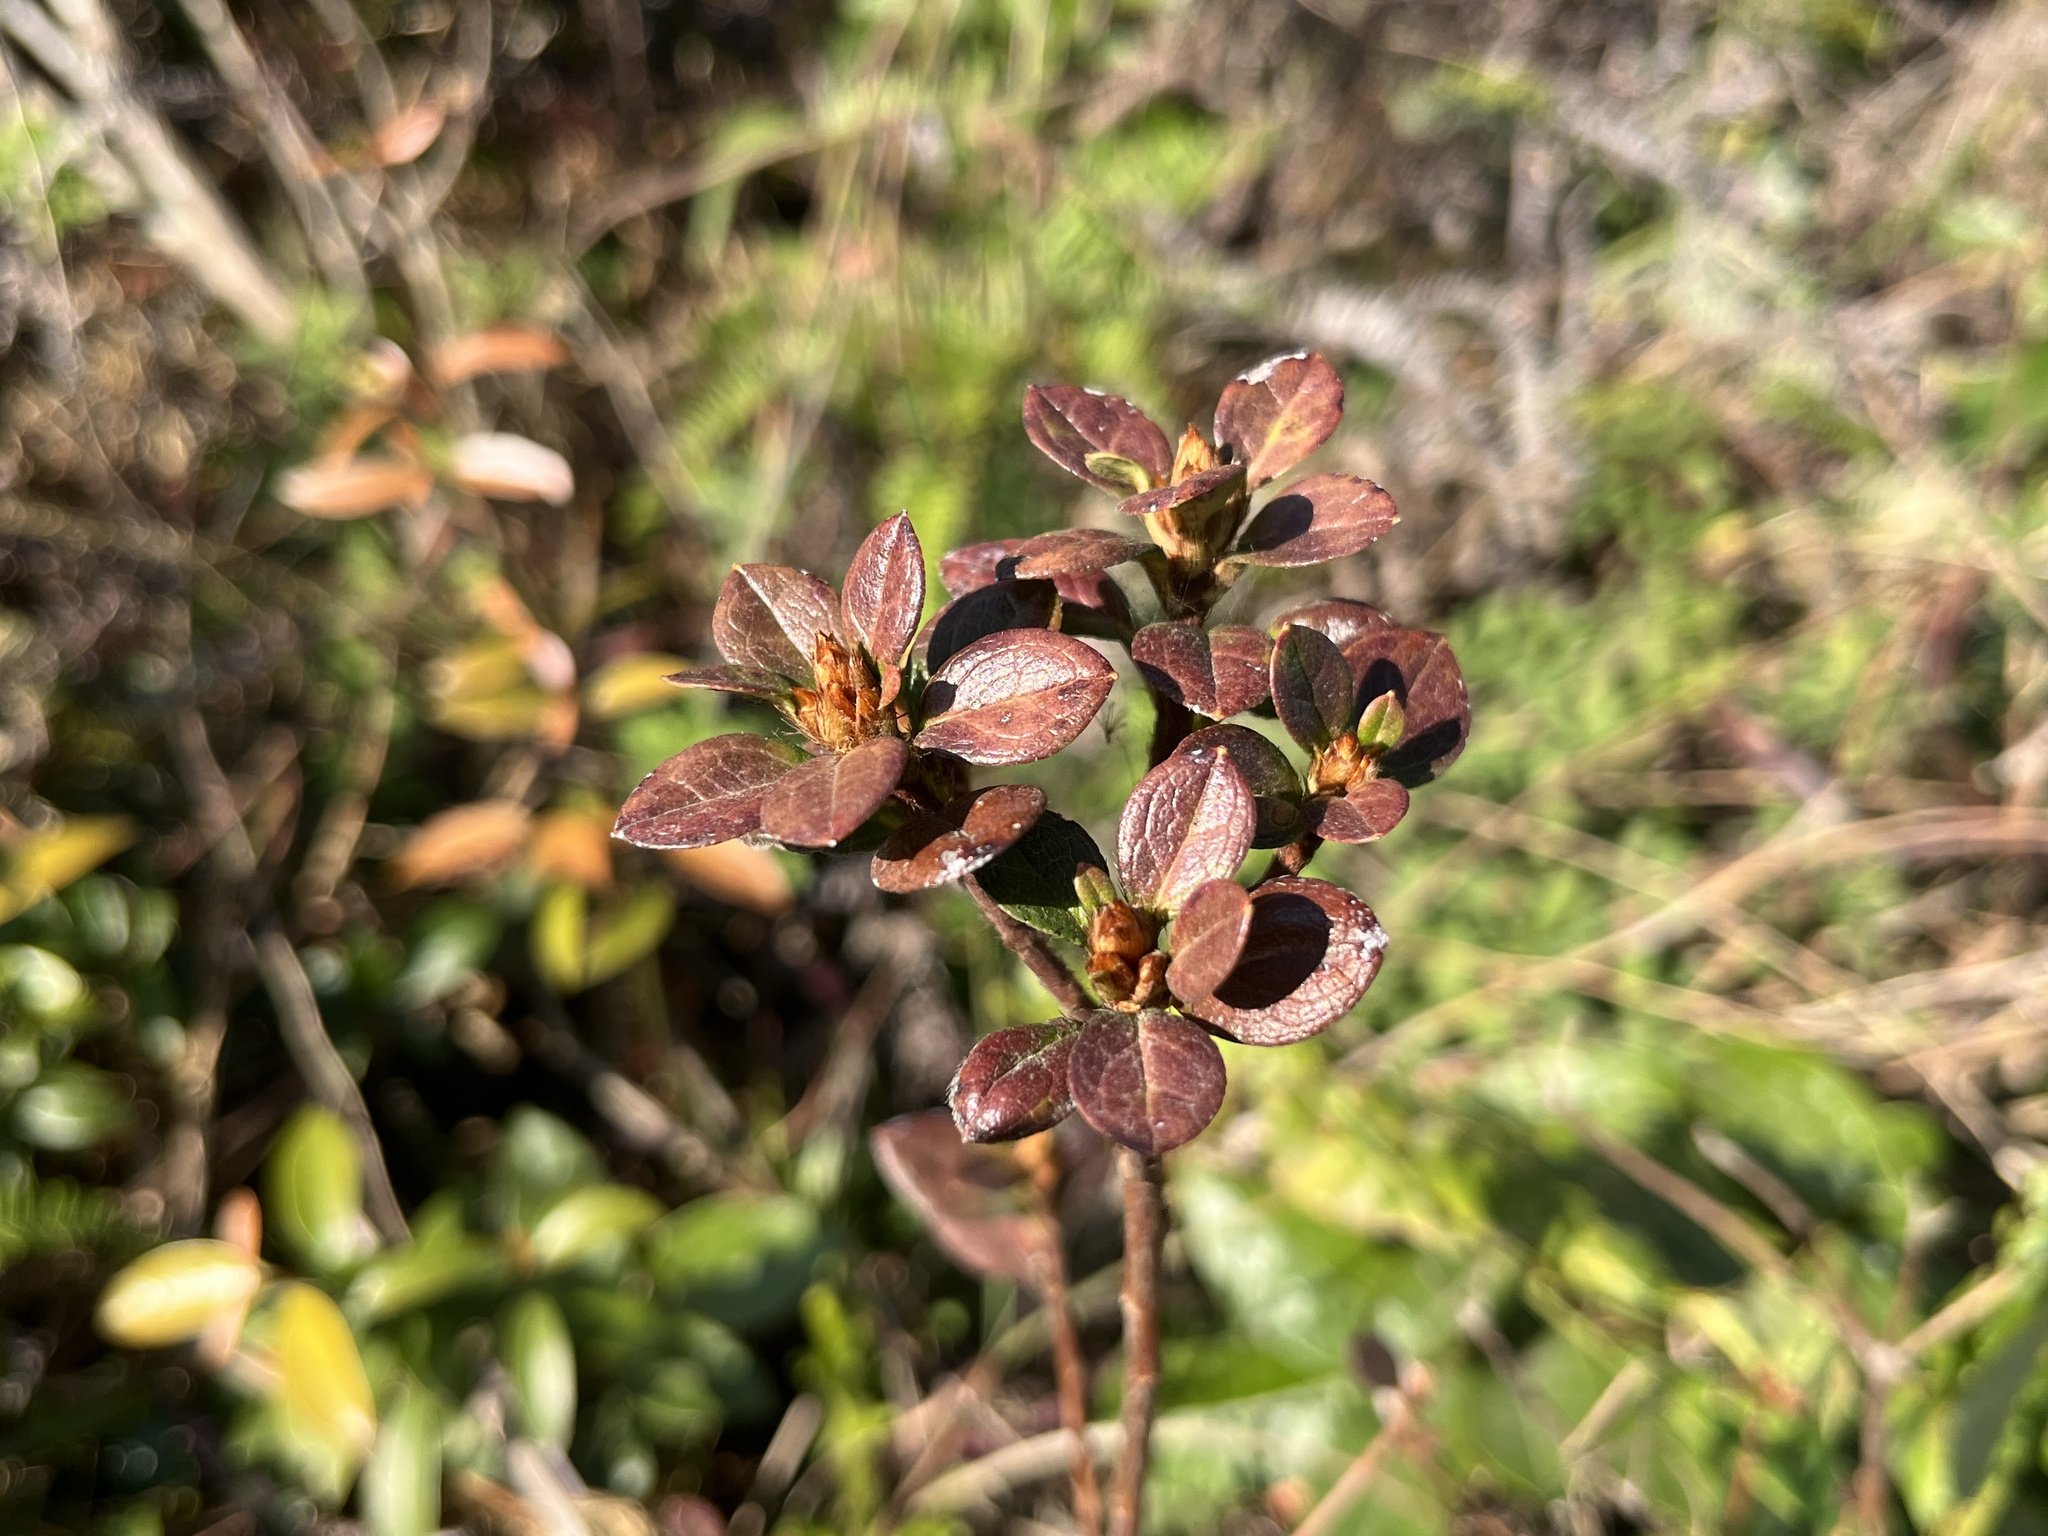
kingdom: Plantae
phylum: Tracheophyta
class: Magnoliopsida
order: Ericales
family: Ericaceae
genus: Rhododendron
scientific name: Rhododendron farrerae
